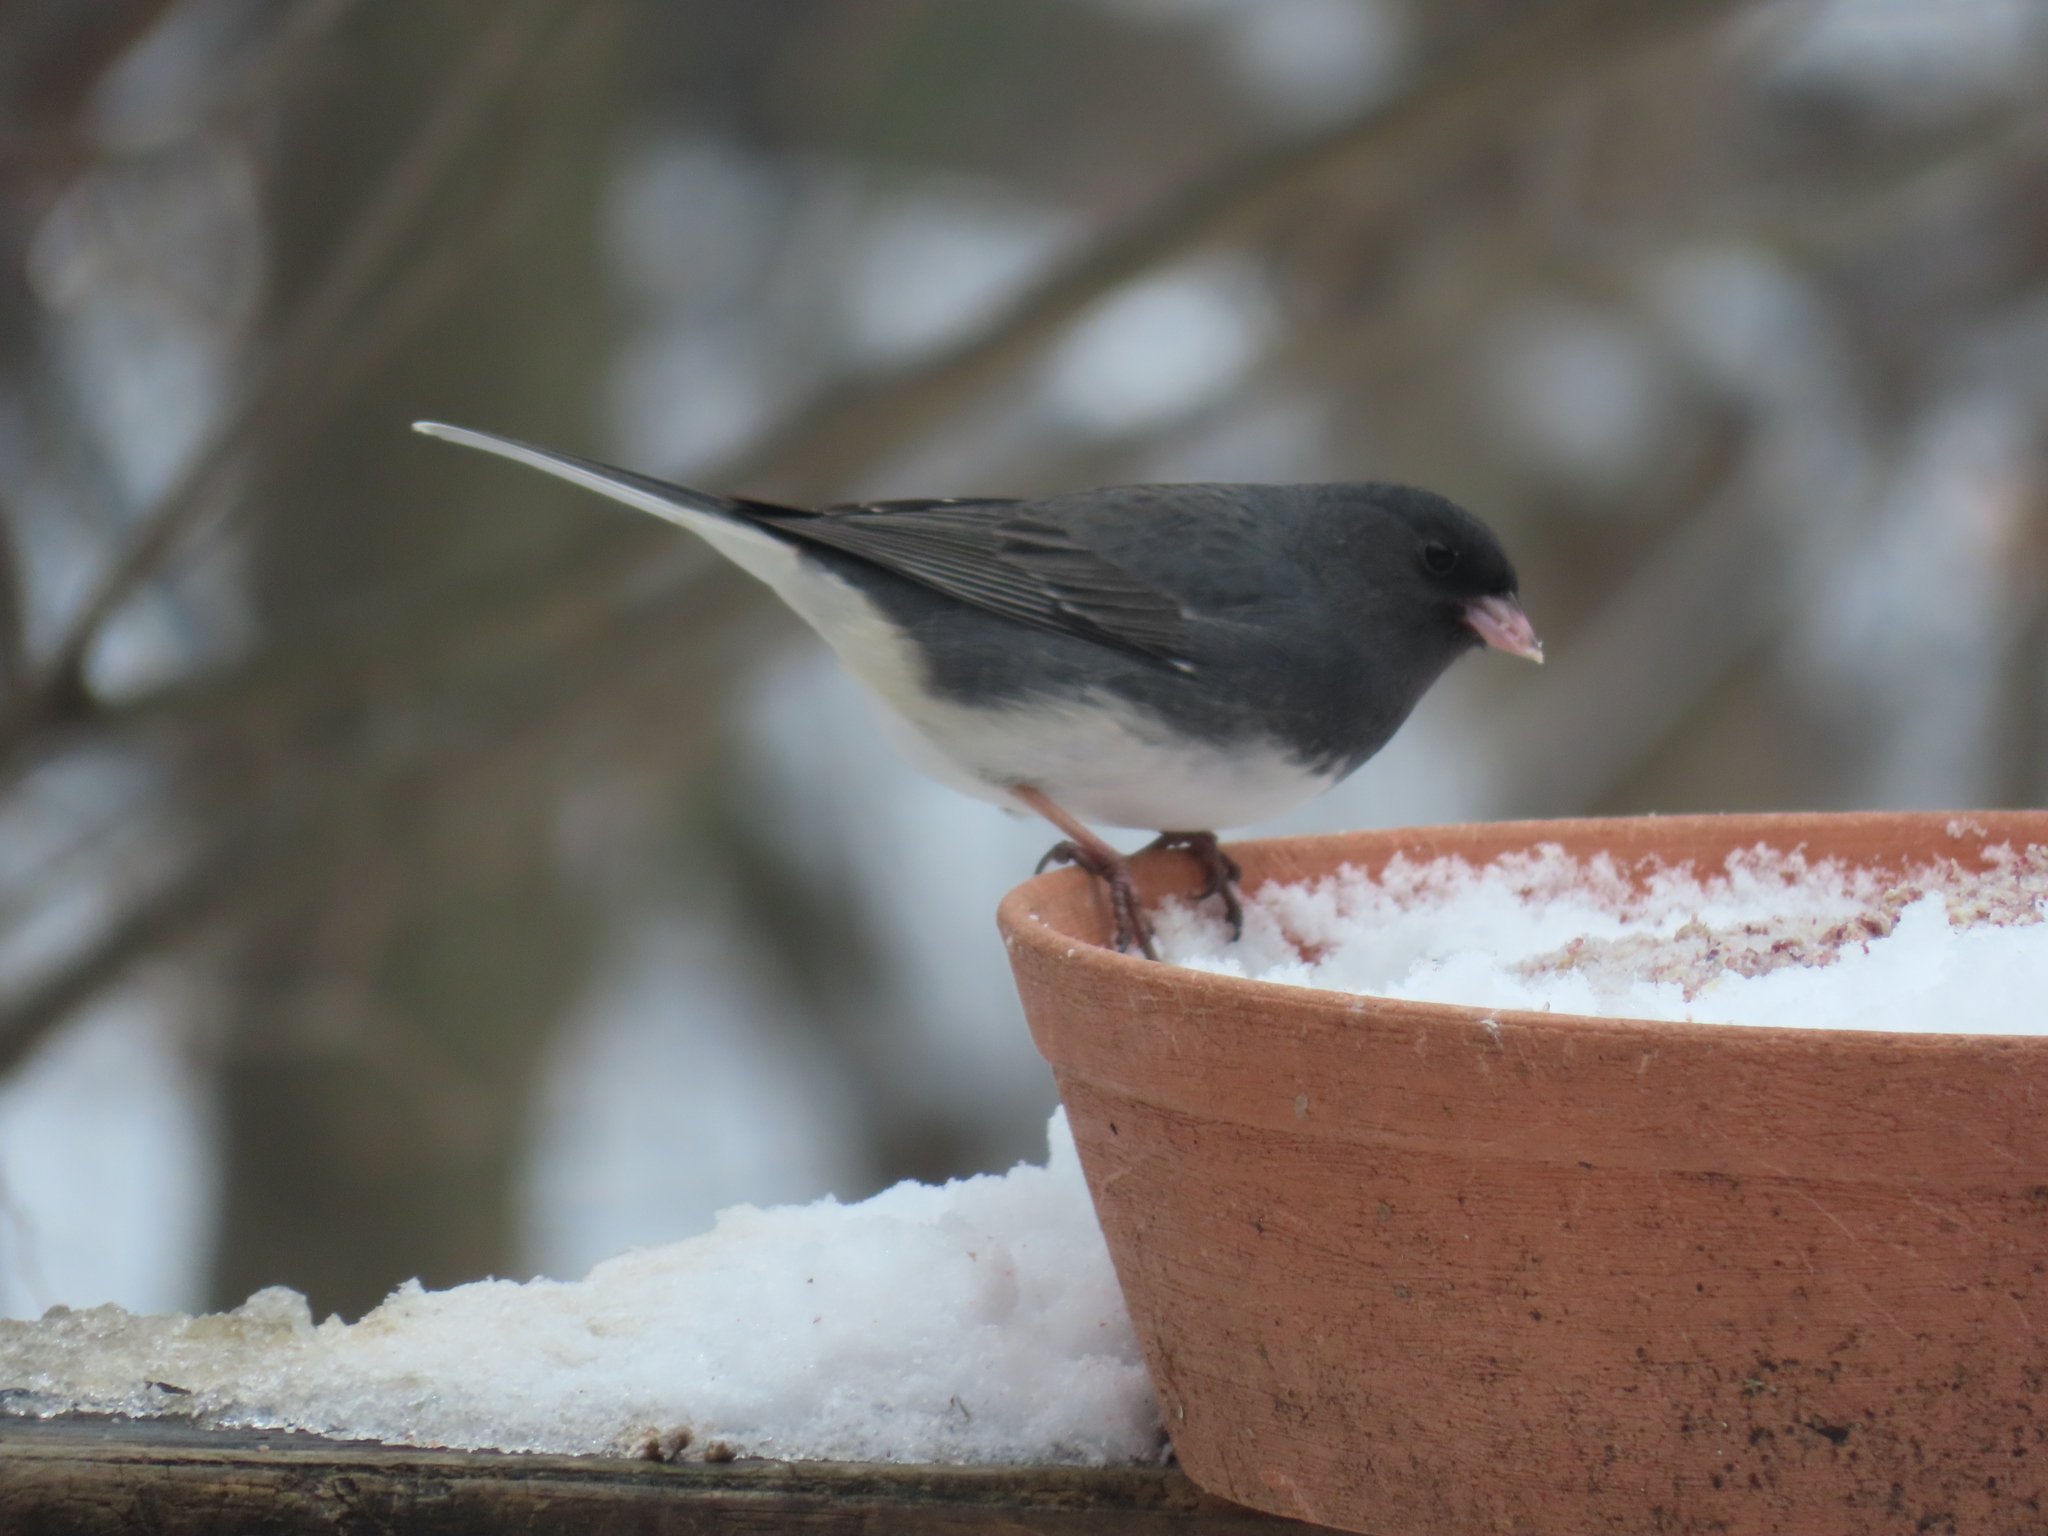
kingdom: Animalia
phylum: Chordata
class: Aves
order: Passeriformes
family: Passerellidae
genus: Junco
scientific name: Junco hyemalis
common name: Dark-eyed junco
